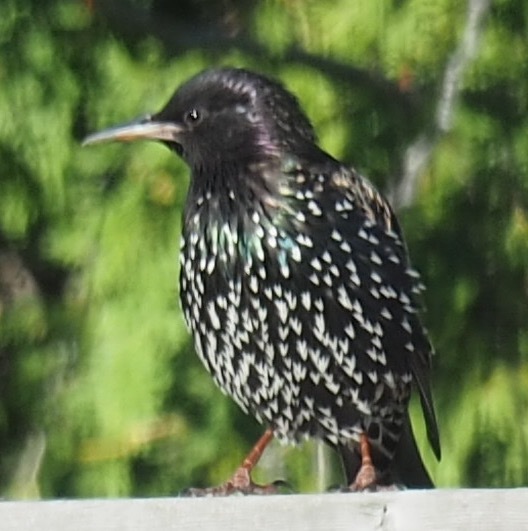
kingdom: Animalia
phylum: Chordata
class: Aves
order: Passeriformes
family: Sturnidae
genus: Sturnus
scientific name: Sturnus vulgaris
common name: Common starling
